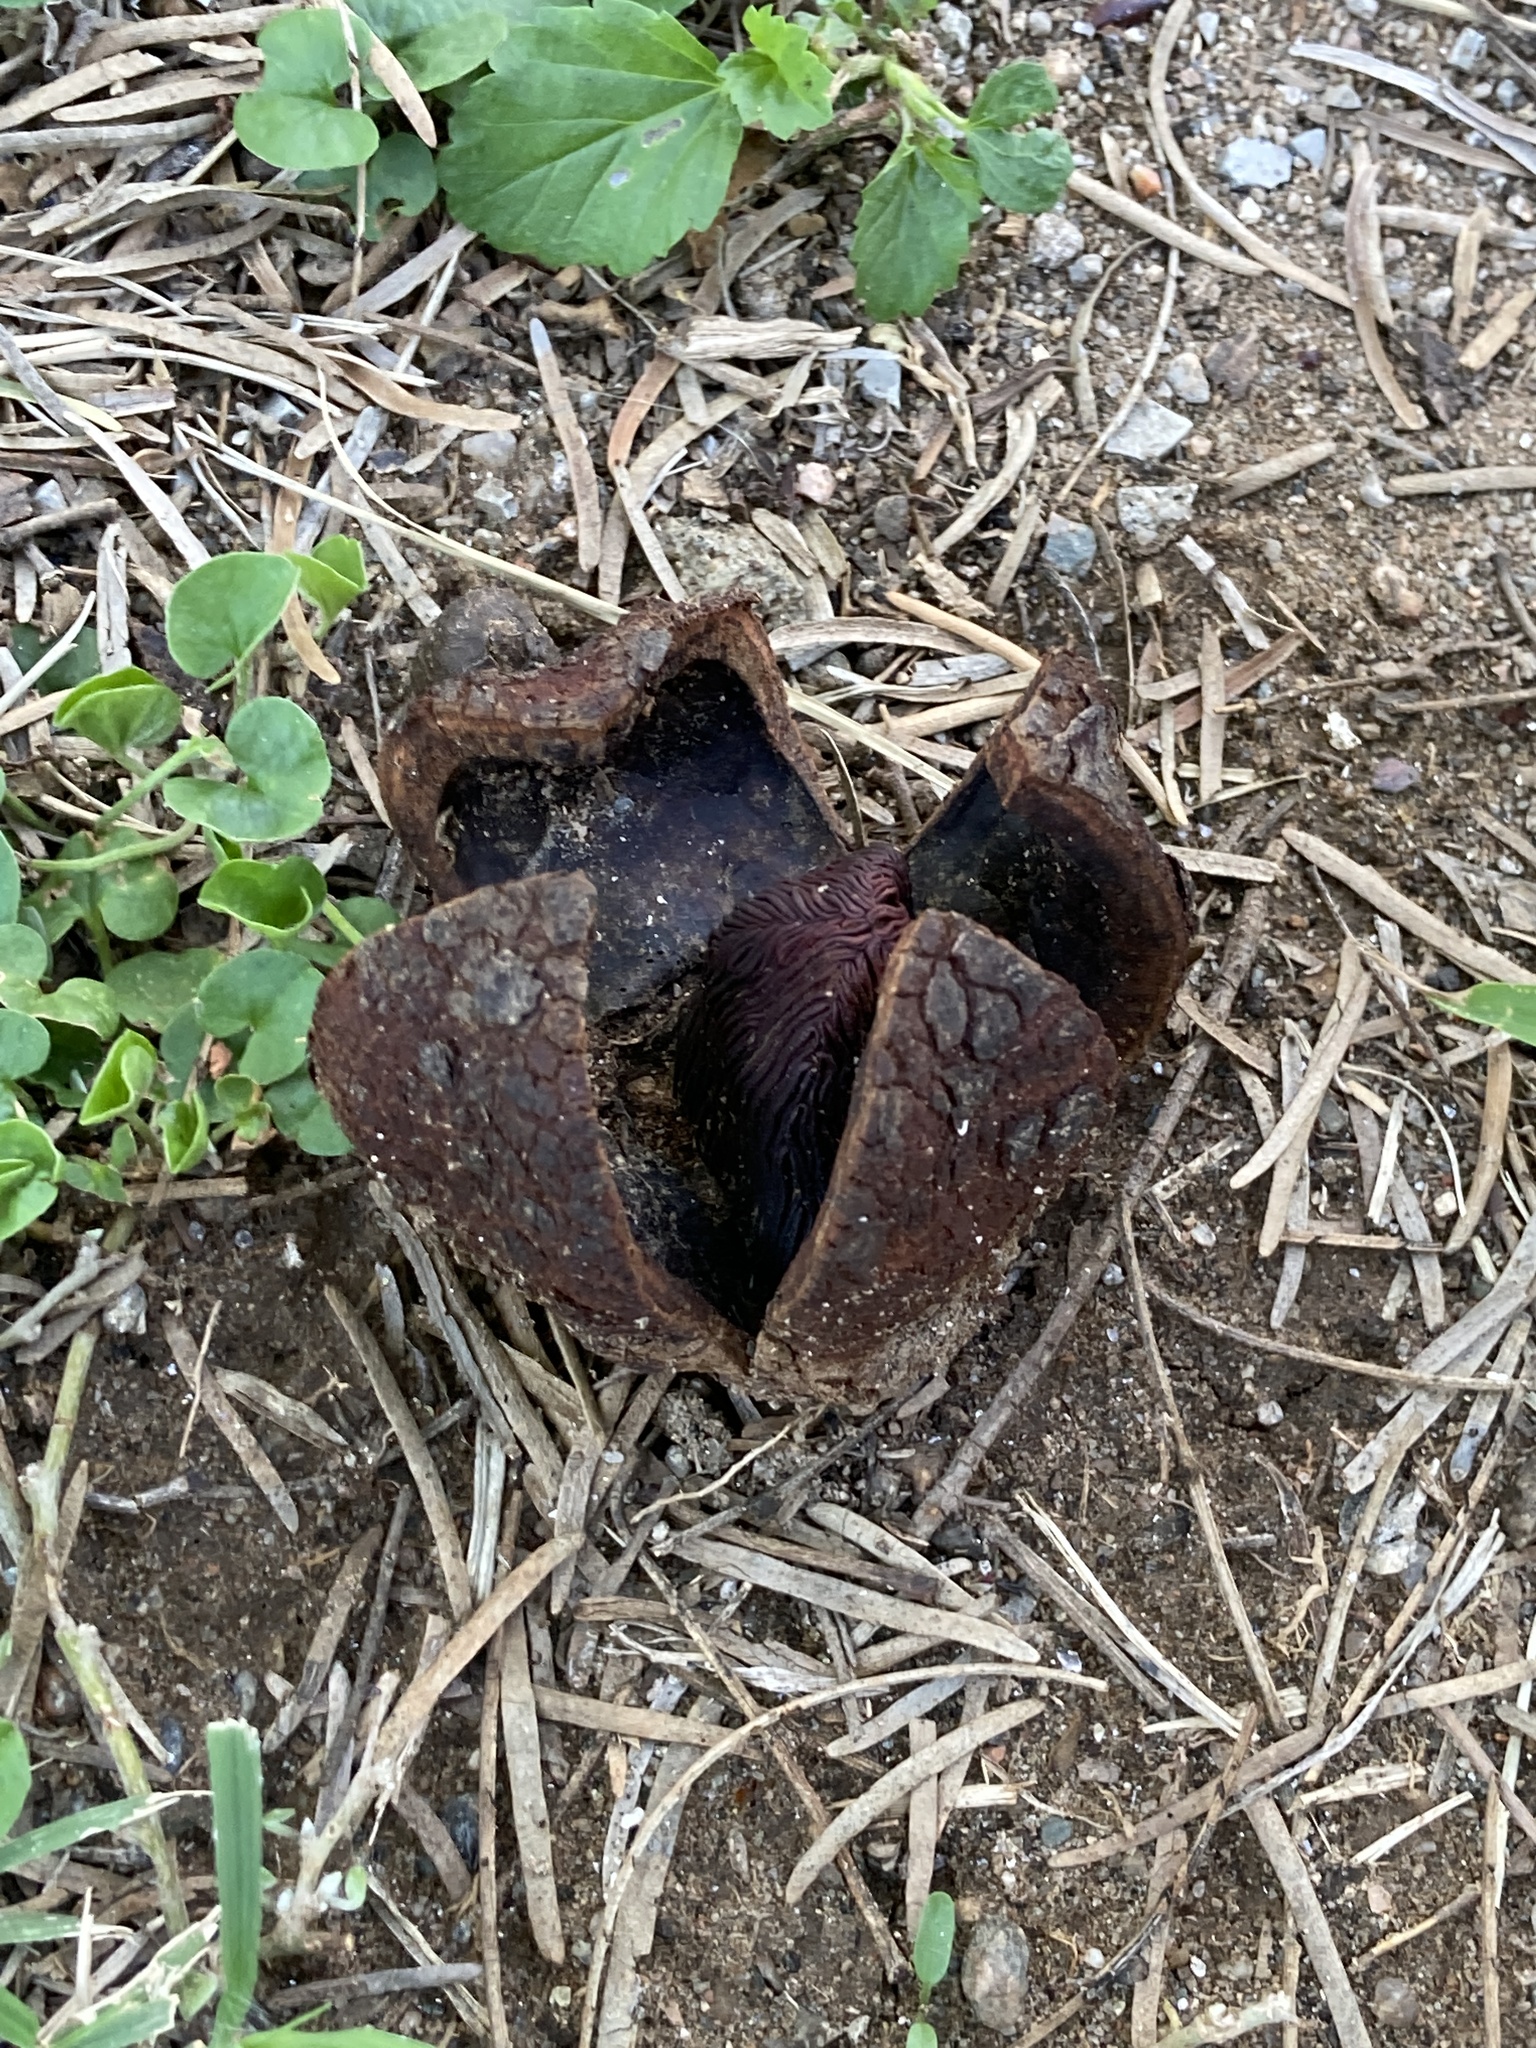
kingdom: Plantae
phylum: Tracheophyta
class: Magnoliopsida
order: Piperales
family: Hydnoraceae
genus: Prosopanche
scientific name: Prosopanche americana
